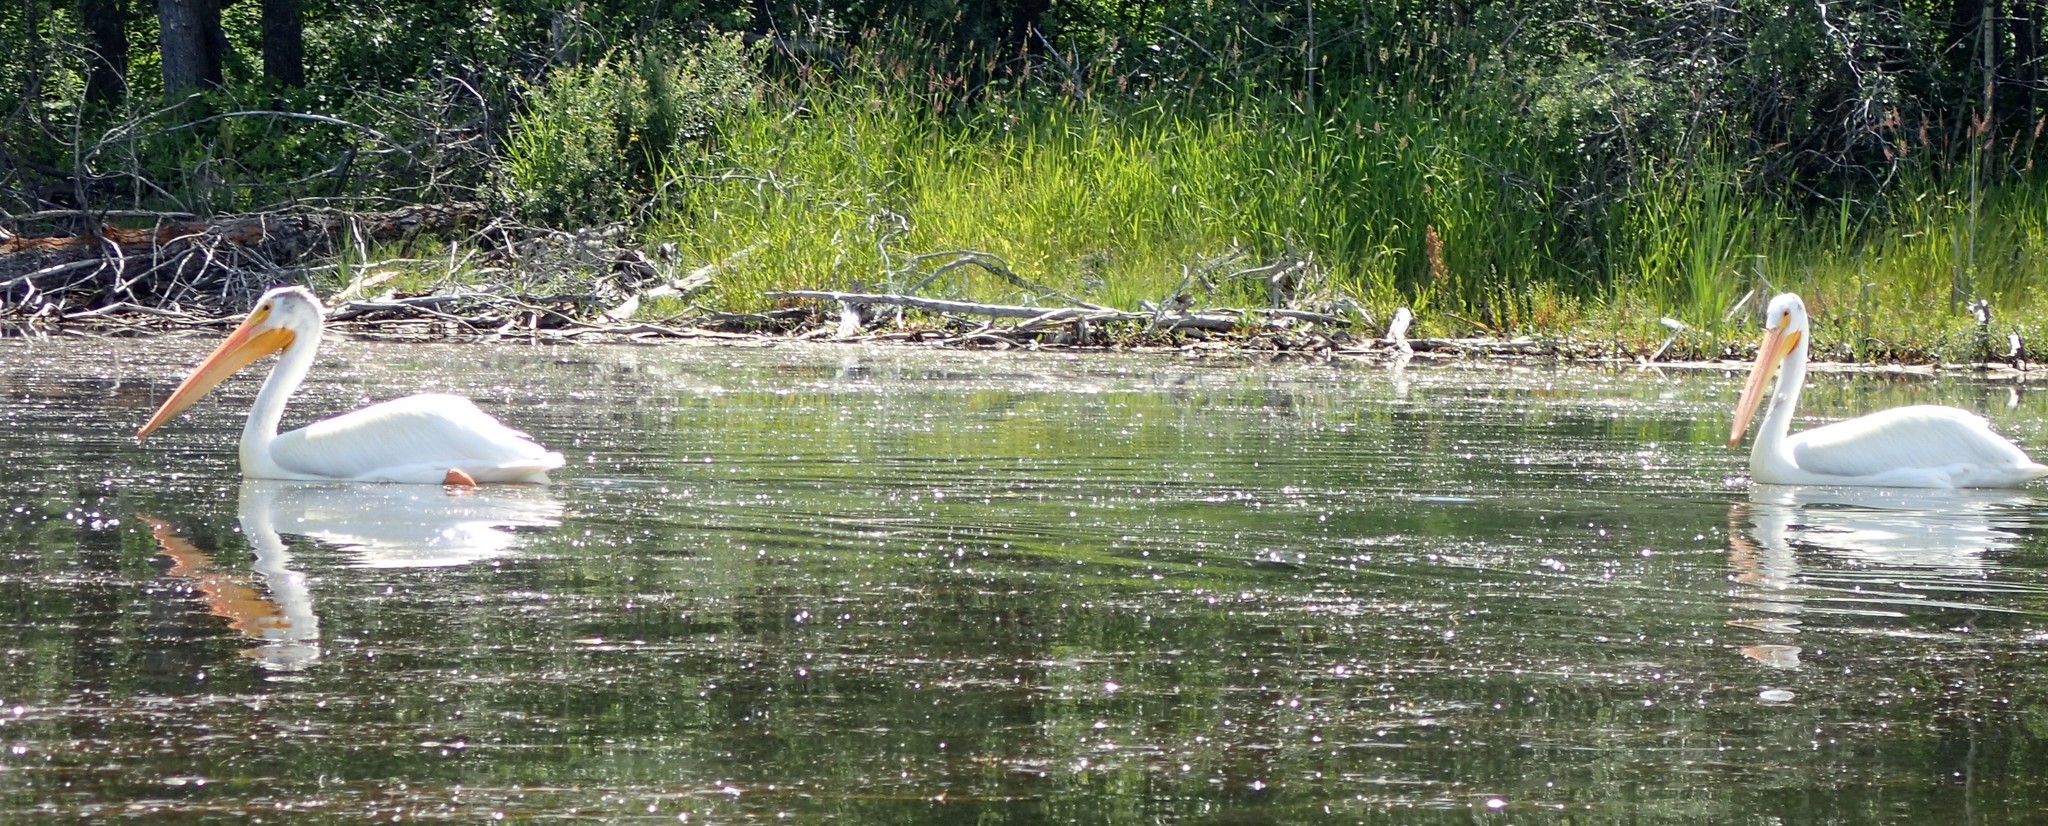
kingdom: Animalia
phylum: Chordata
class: Aves
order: Pelecaniformes
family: Pelecanidae
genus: Pelecanus
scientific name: Pelecanus erythrorhynchos
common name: American white pelican
